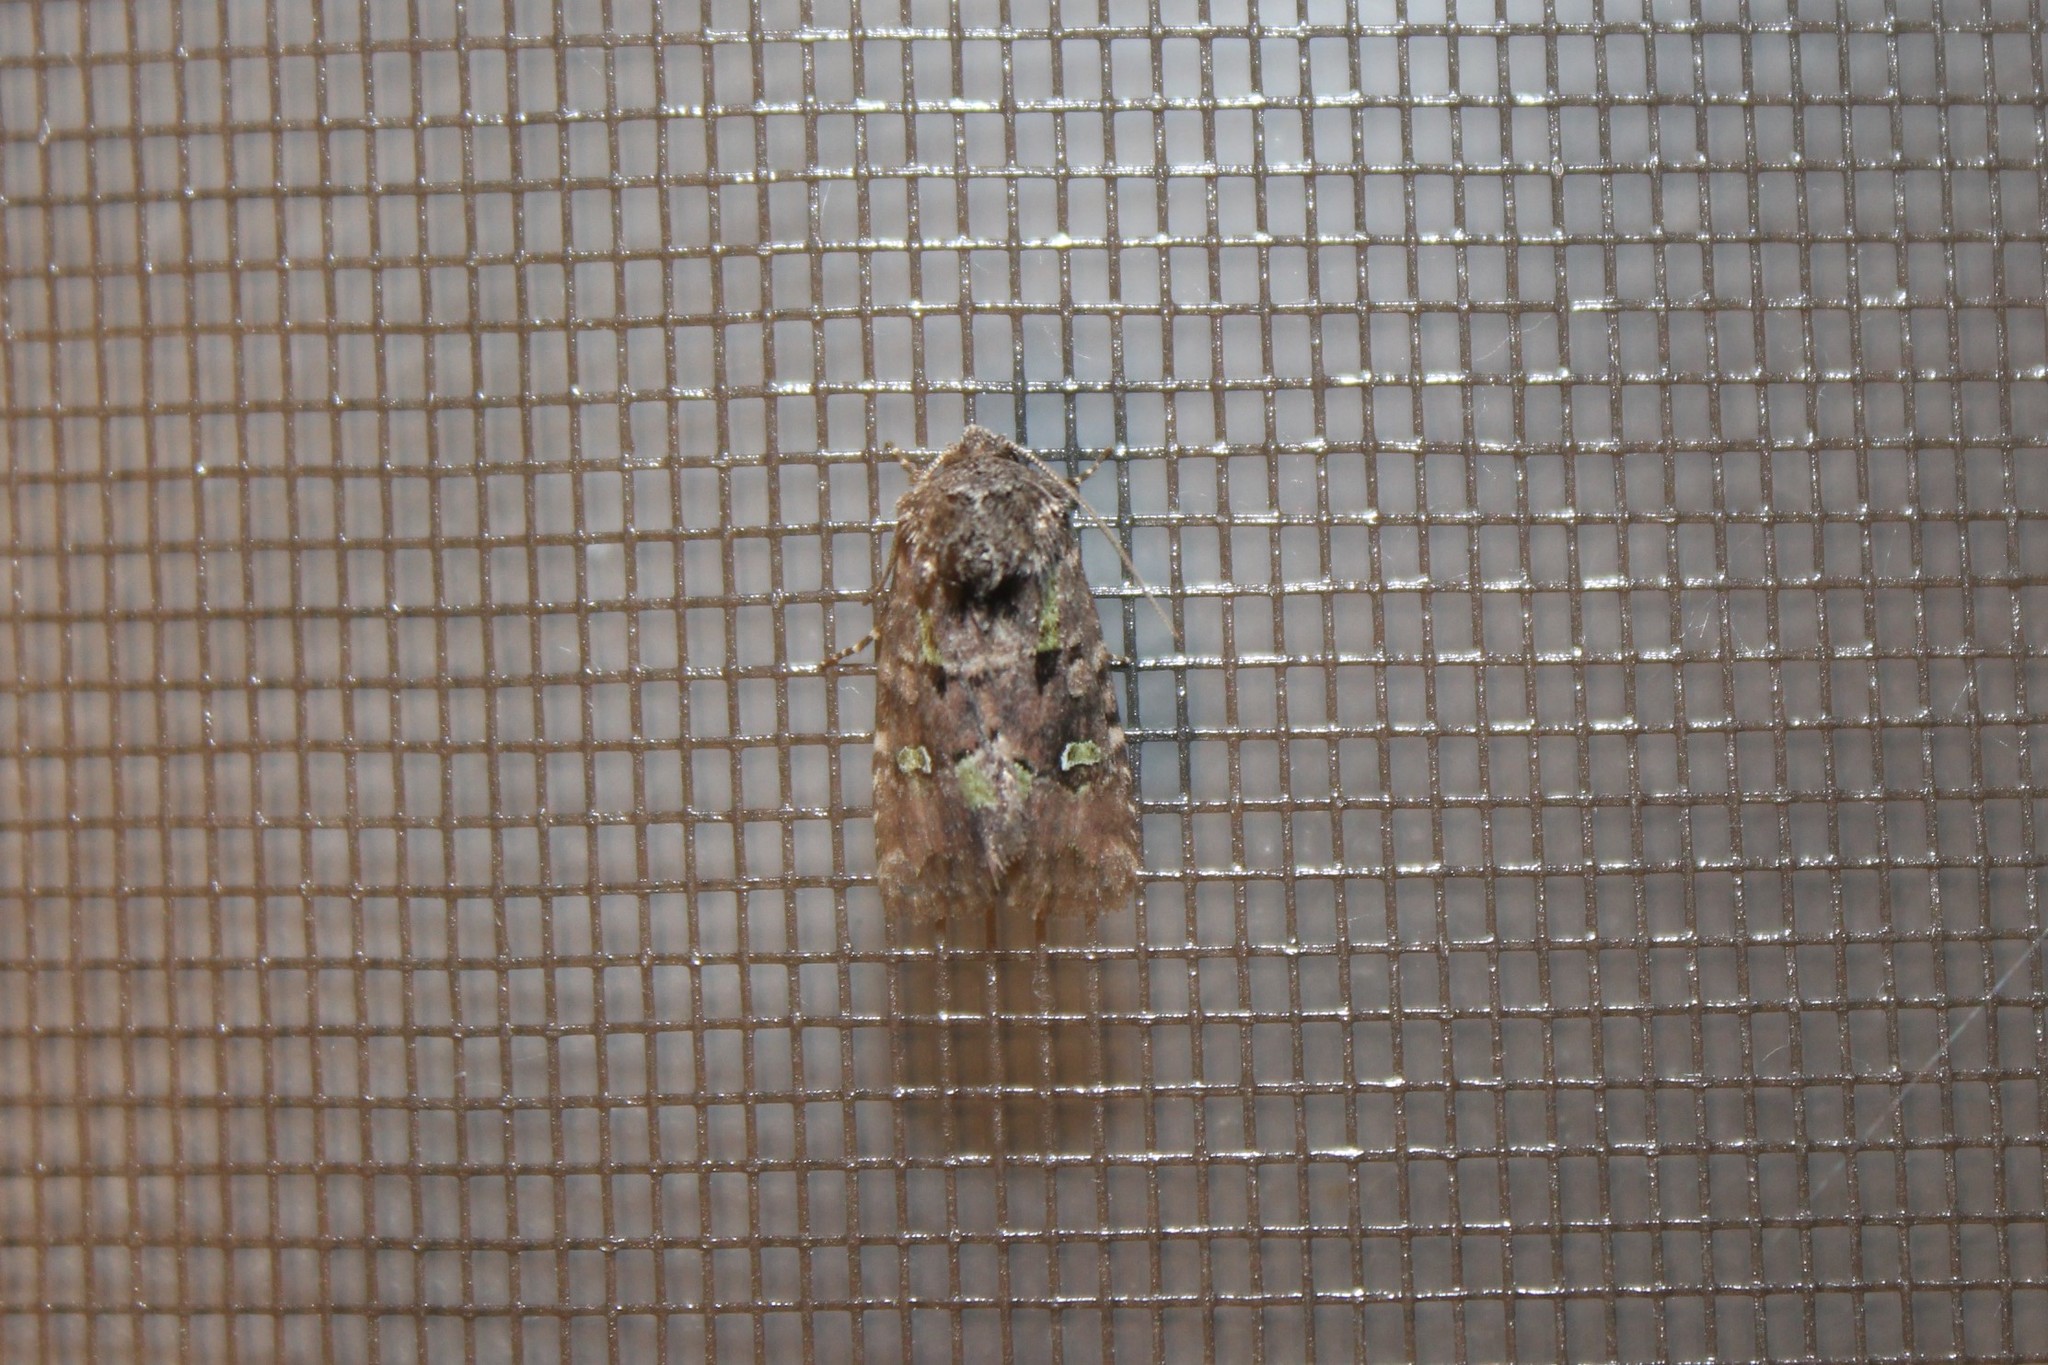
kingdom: Animalia
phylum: Arthropoda
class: Insecta
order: Lepidoptera
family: Noctuidae
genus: Lacinipolia
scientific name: Lacinipolia renigera
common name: Kidney-spotted minor
